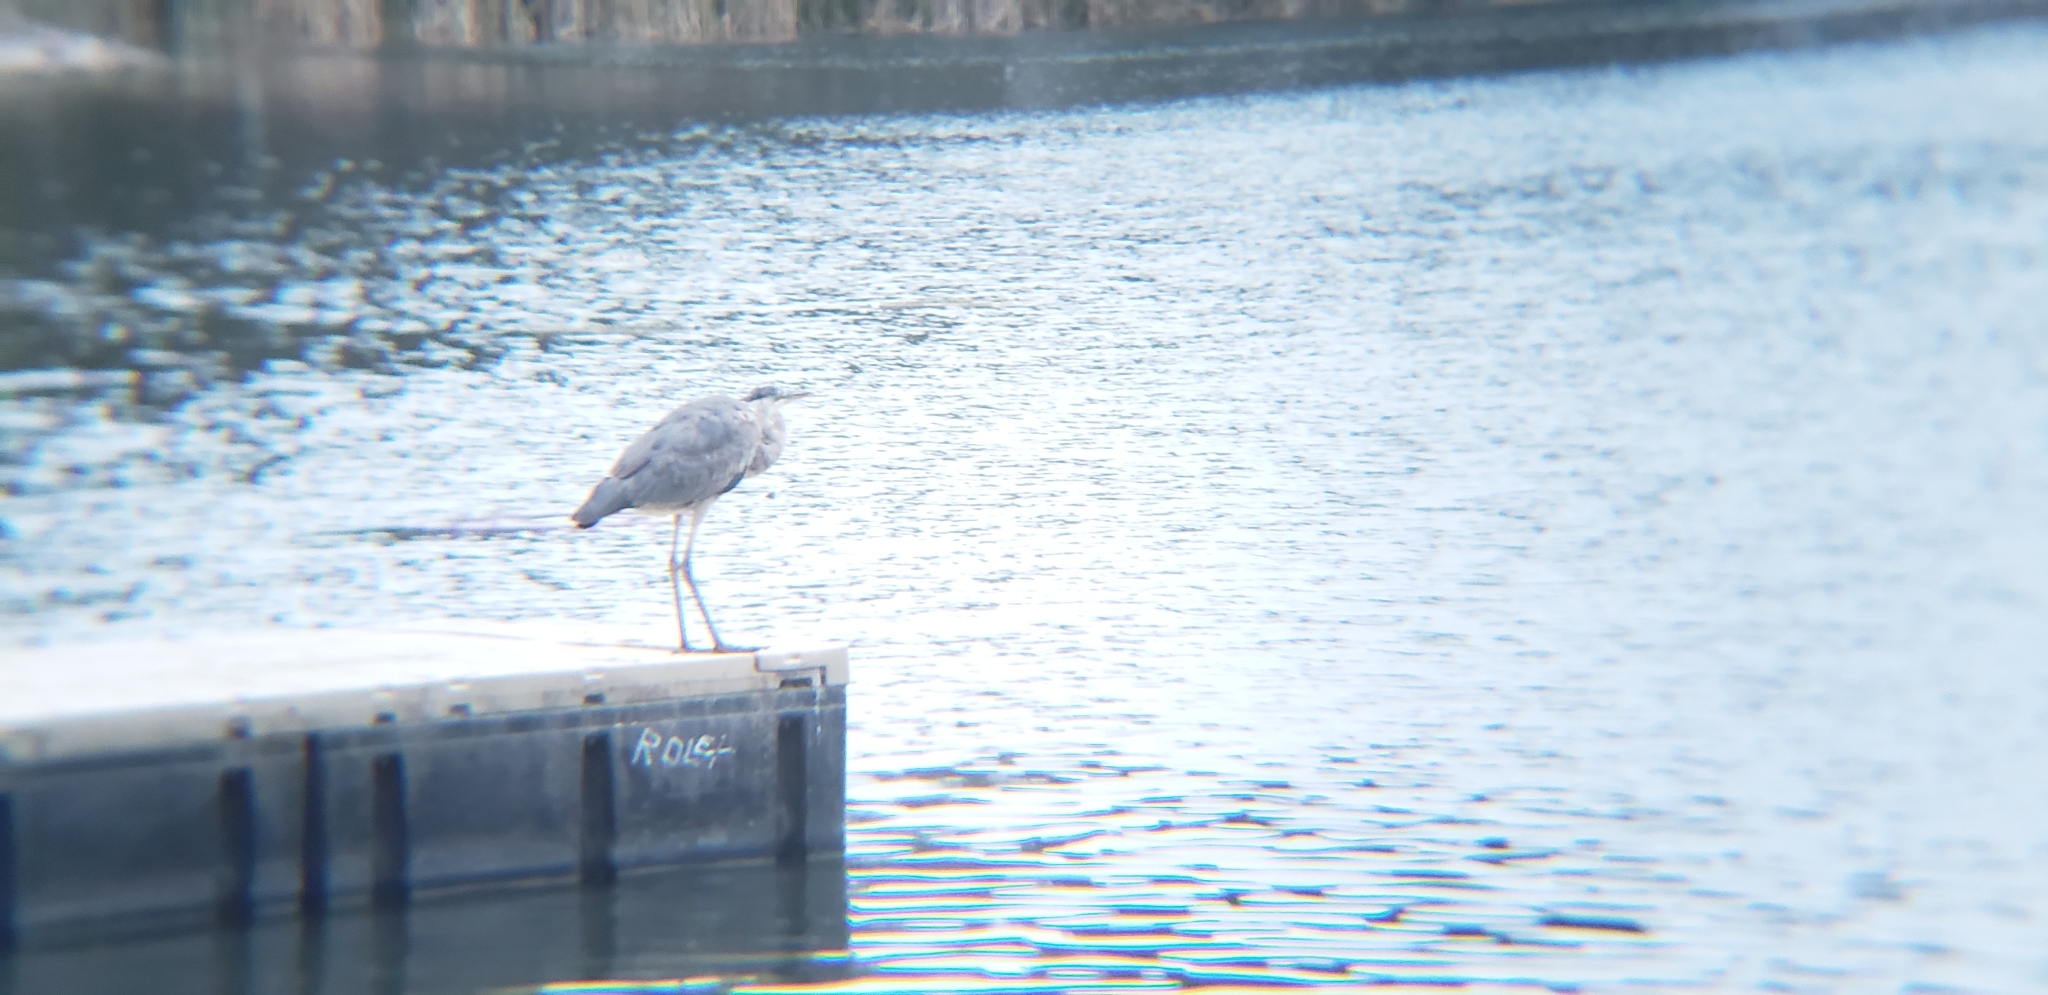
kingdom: Animalia
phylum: Chordata
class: Aves
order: Pelecaniformes
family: Ardeidae
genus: Ardea
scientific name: Ardea herodias
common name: Great blue heron
